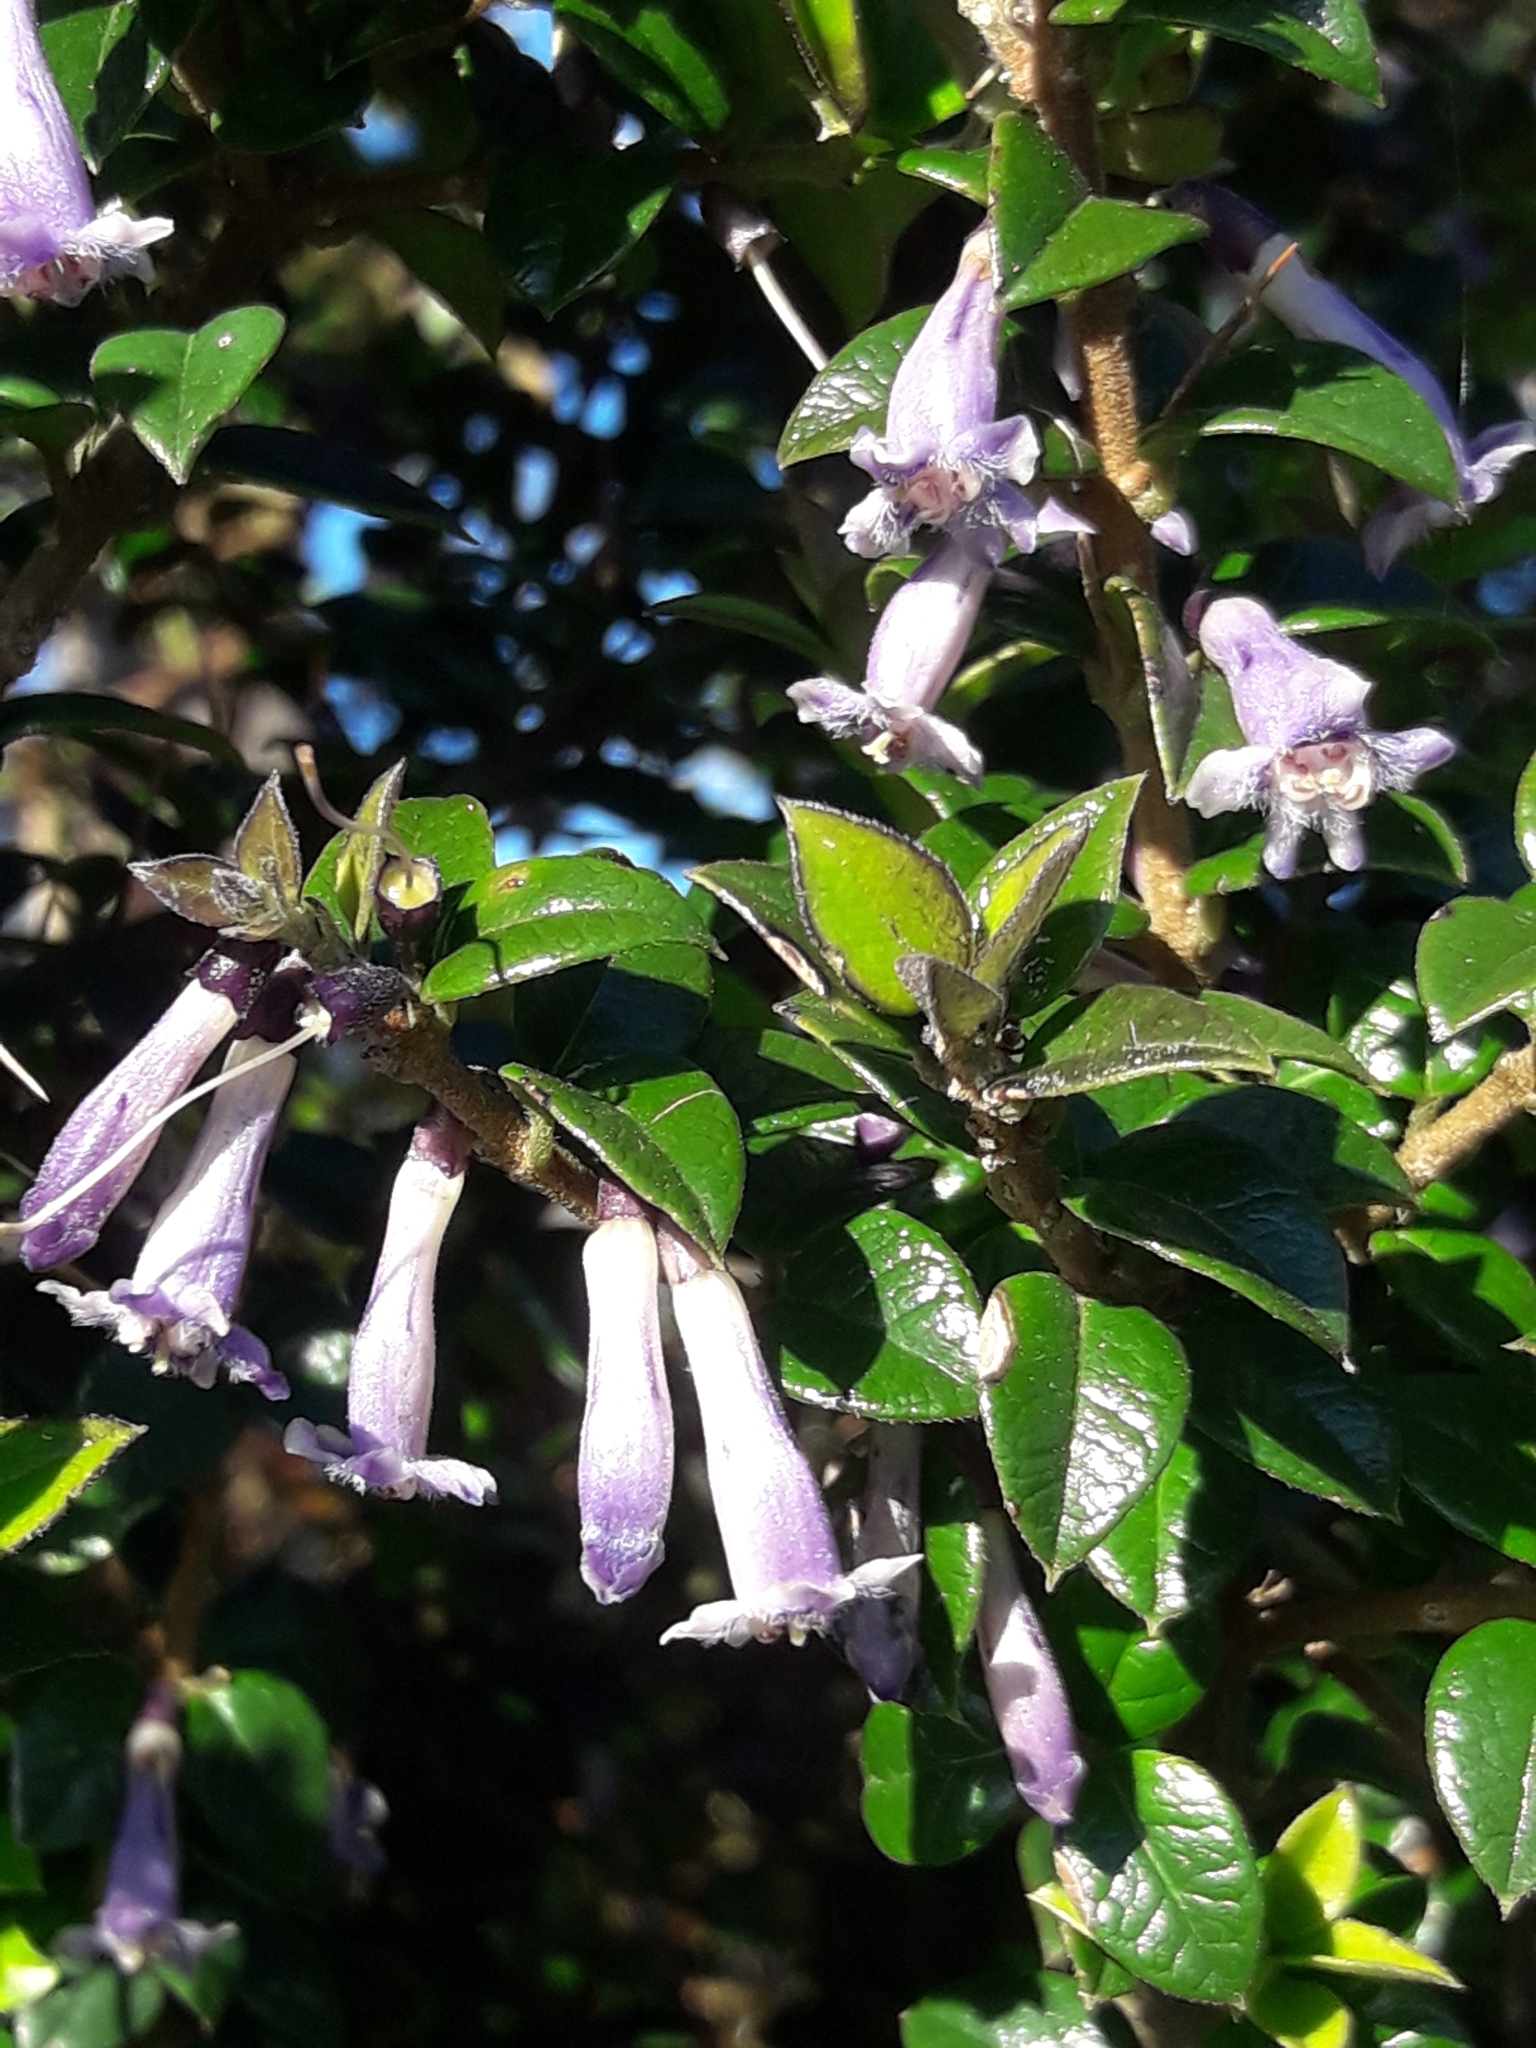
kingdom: Plantae
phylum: Tracheophyta
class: Magnoliopsida
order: Lamiales
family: Verbenaceae
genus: Rhaphithamnus
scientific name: Rhaphithamnus spinosus
